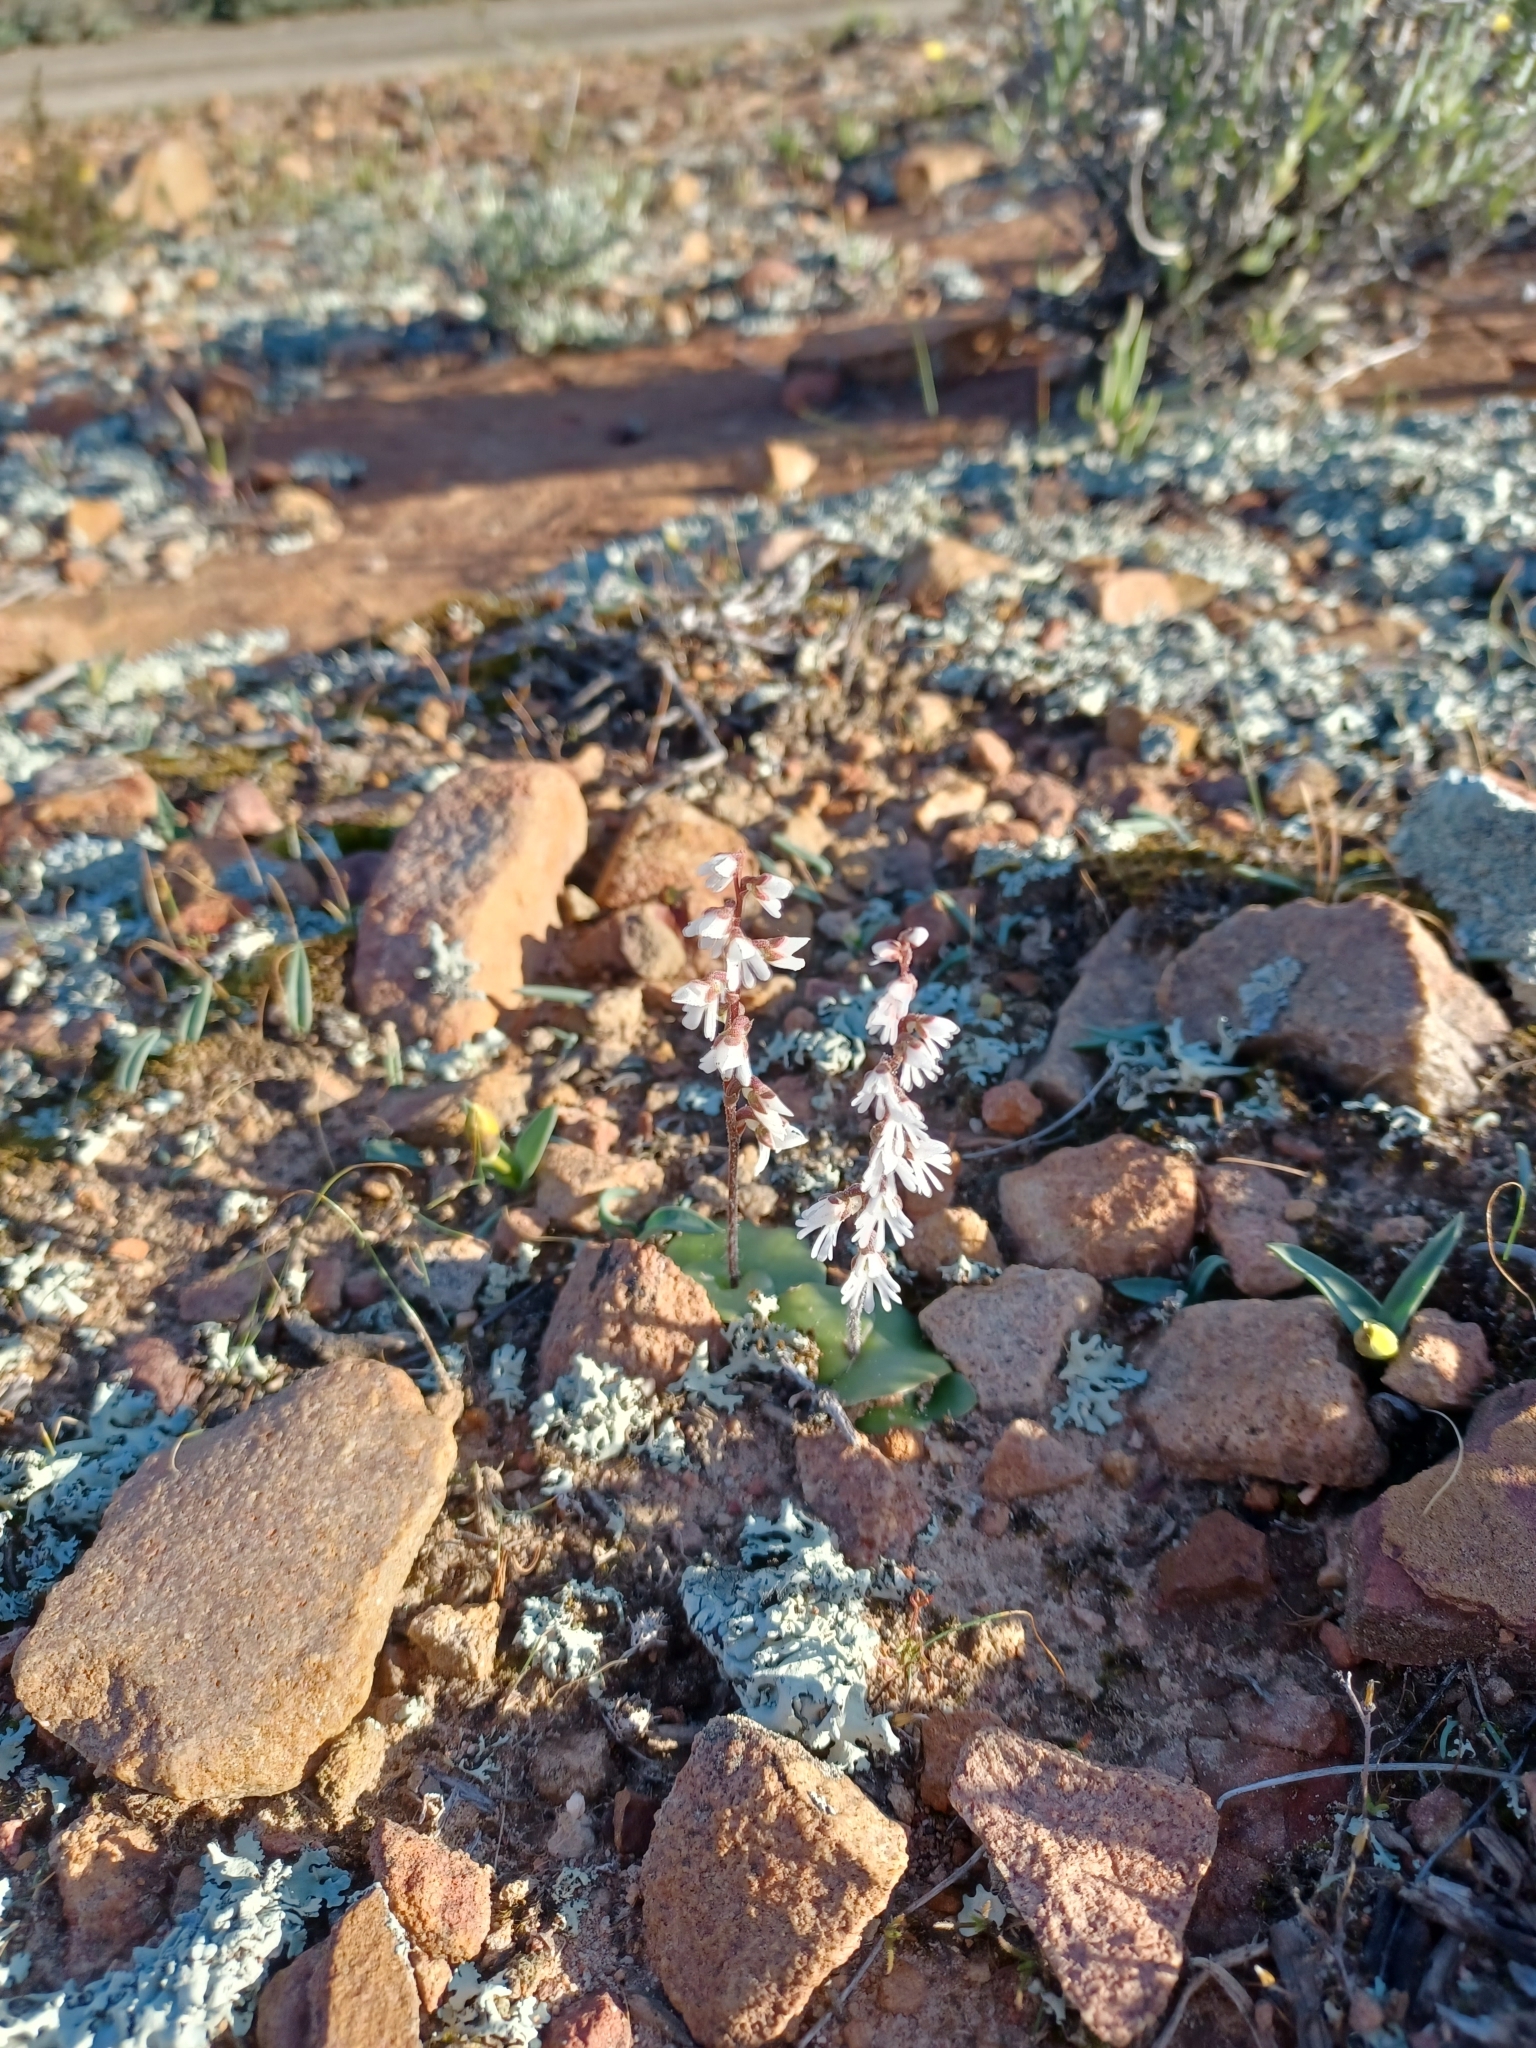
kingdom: Plantae
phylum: Tracheophyta
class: Liliopsida
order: Asparagales
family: Orchidaceae
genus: Holothrix
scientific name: Holothrix aspera
